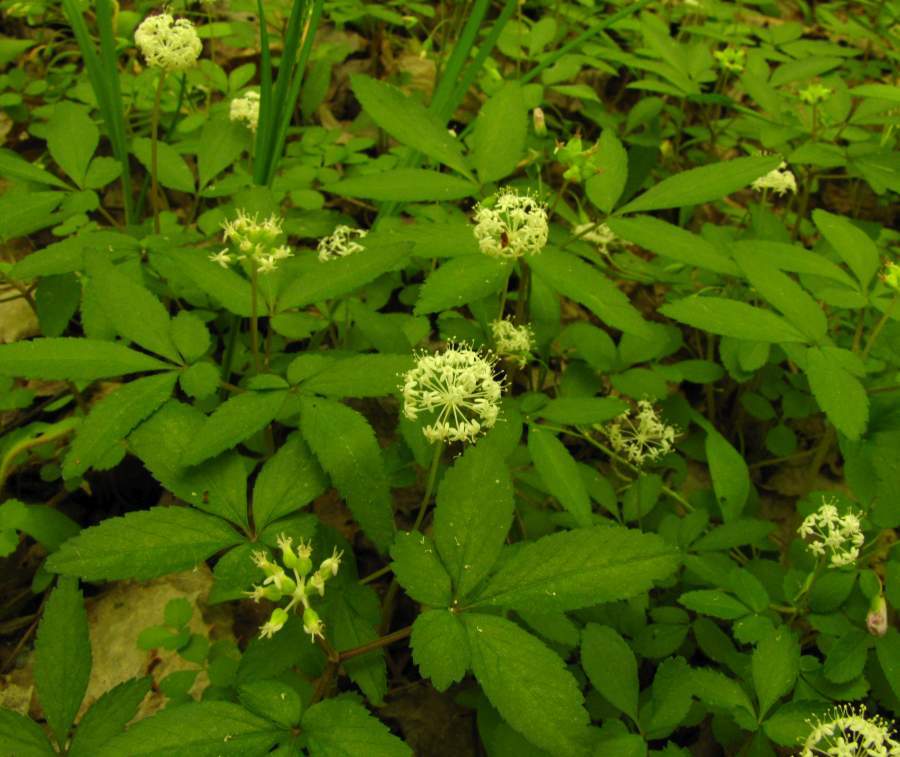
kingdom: Plantae
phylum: Tracheophyta
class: Magnoliopsida
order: Apiales
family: Araliaceae
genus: Panax
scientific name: Panax trifolius
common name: Dwarf ginseng
